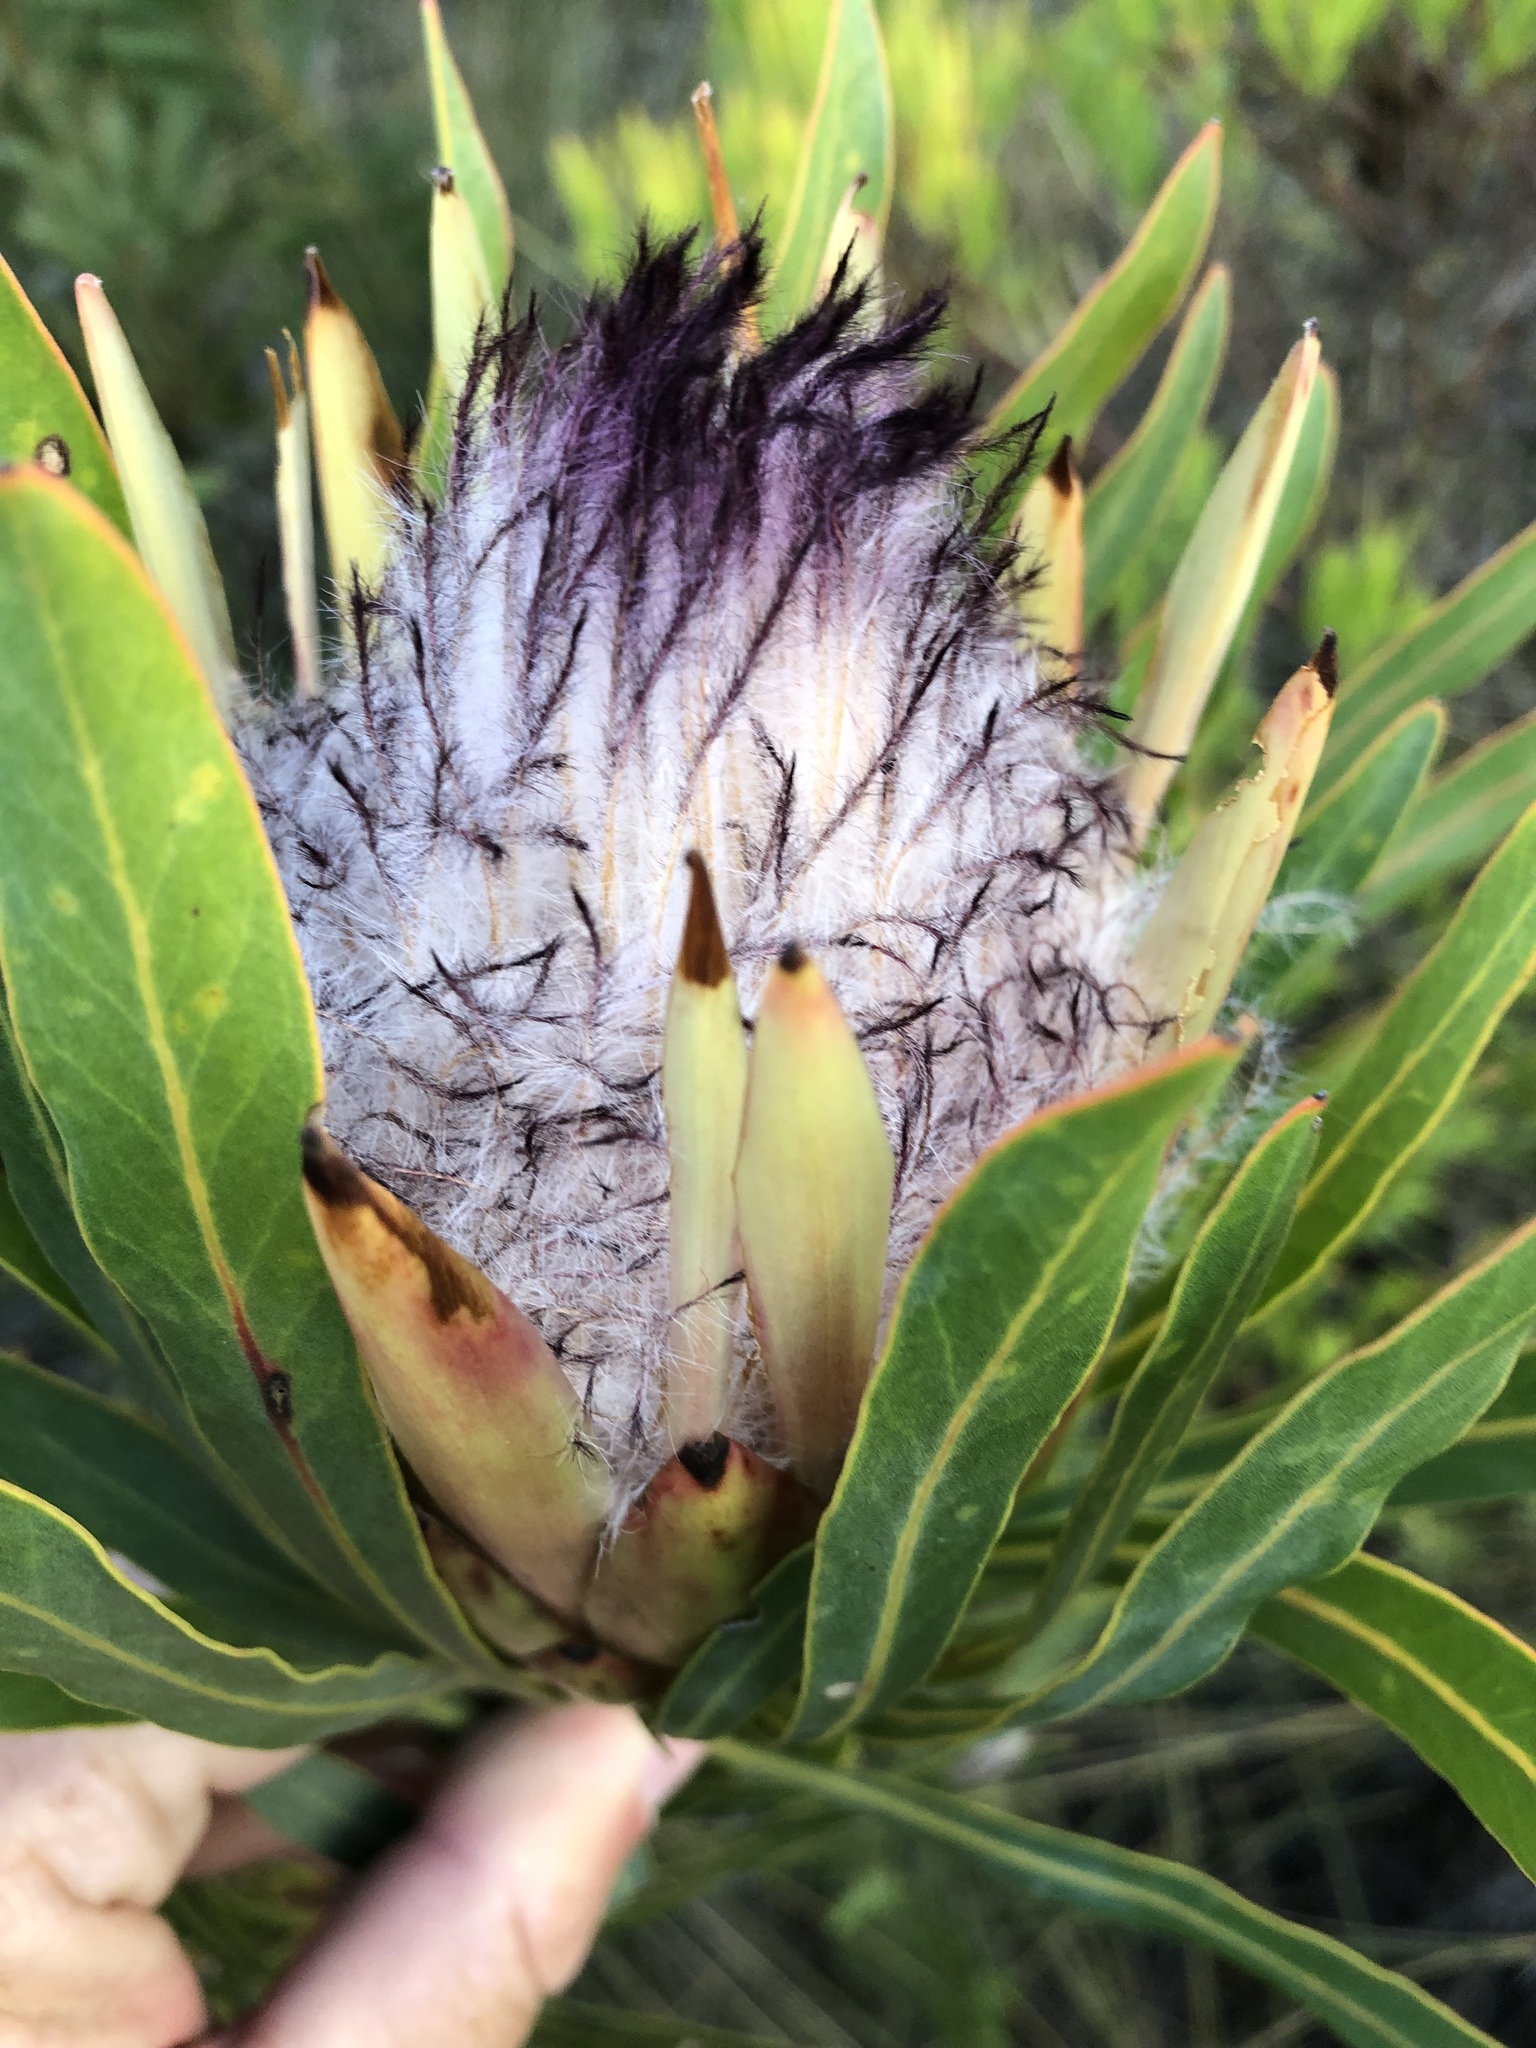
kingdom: Plantae
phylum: Tracheophyta
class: Magnoliopsida
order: Proteales
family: Proteaceae
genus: Protea
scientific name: Protea longifolia
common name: Long-leaf sugarbush
